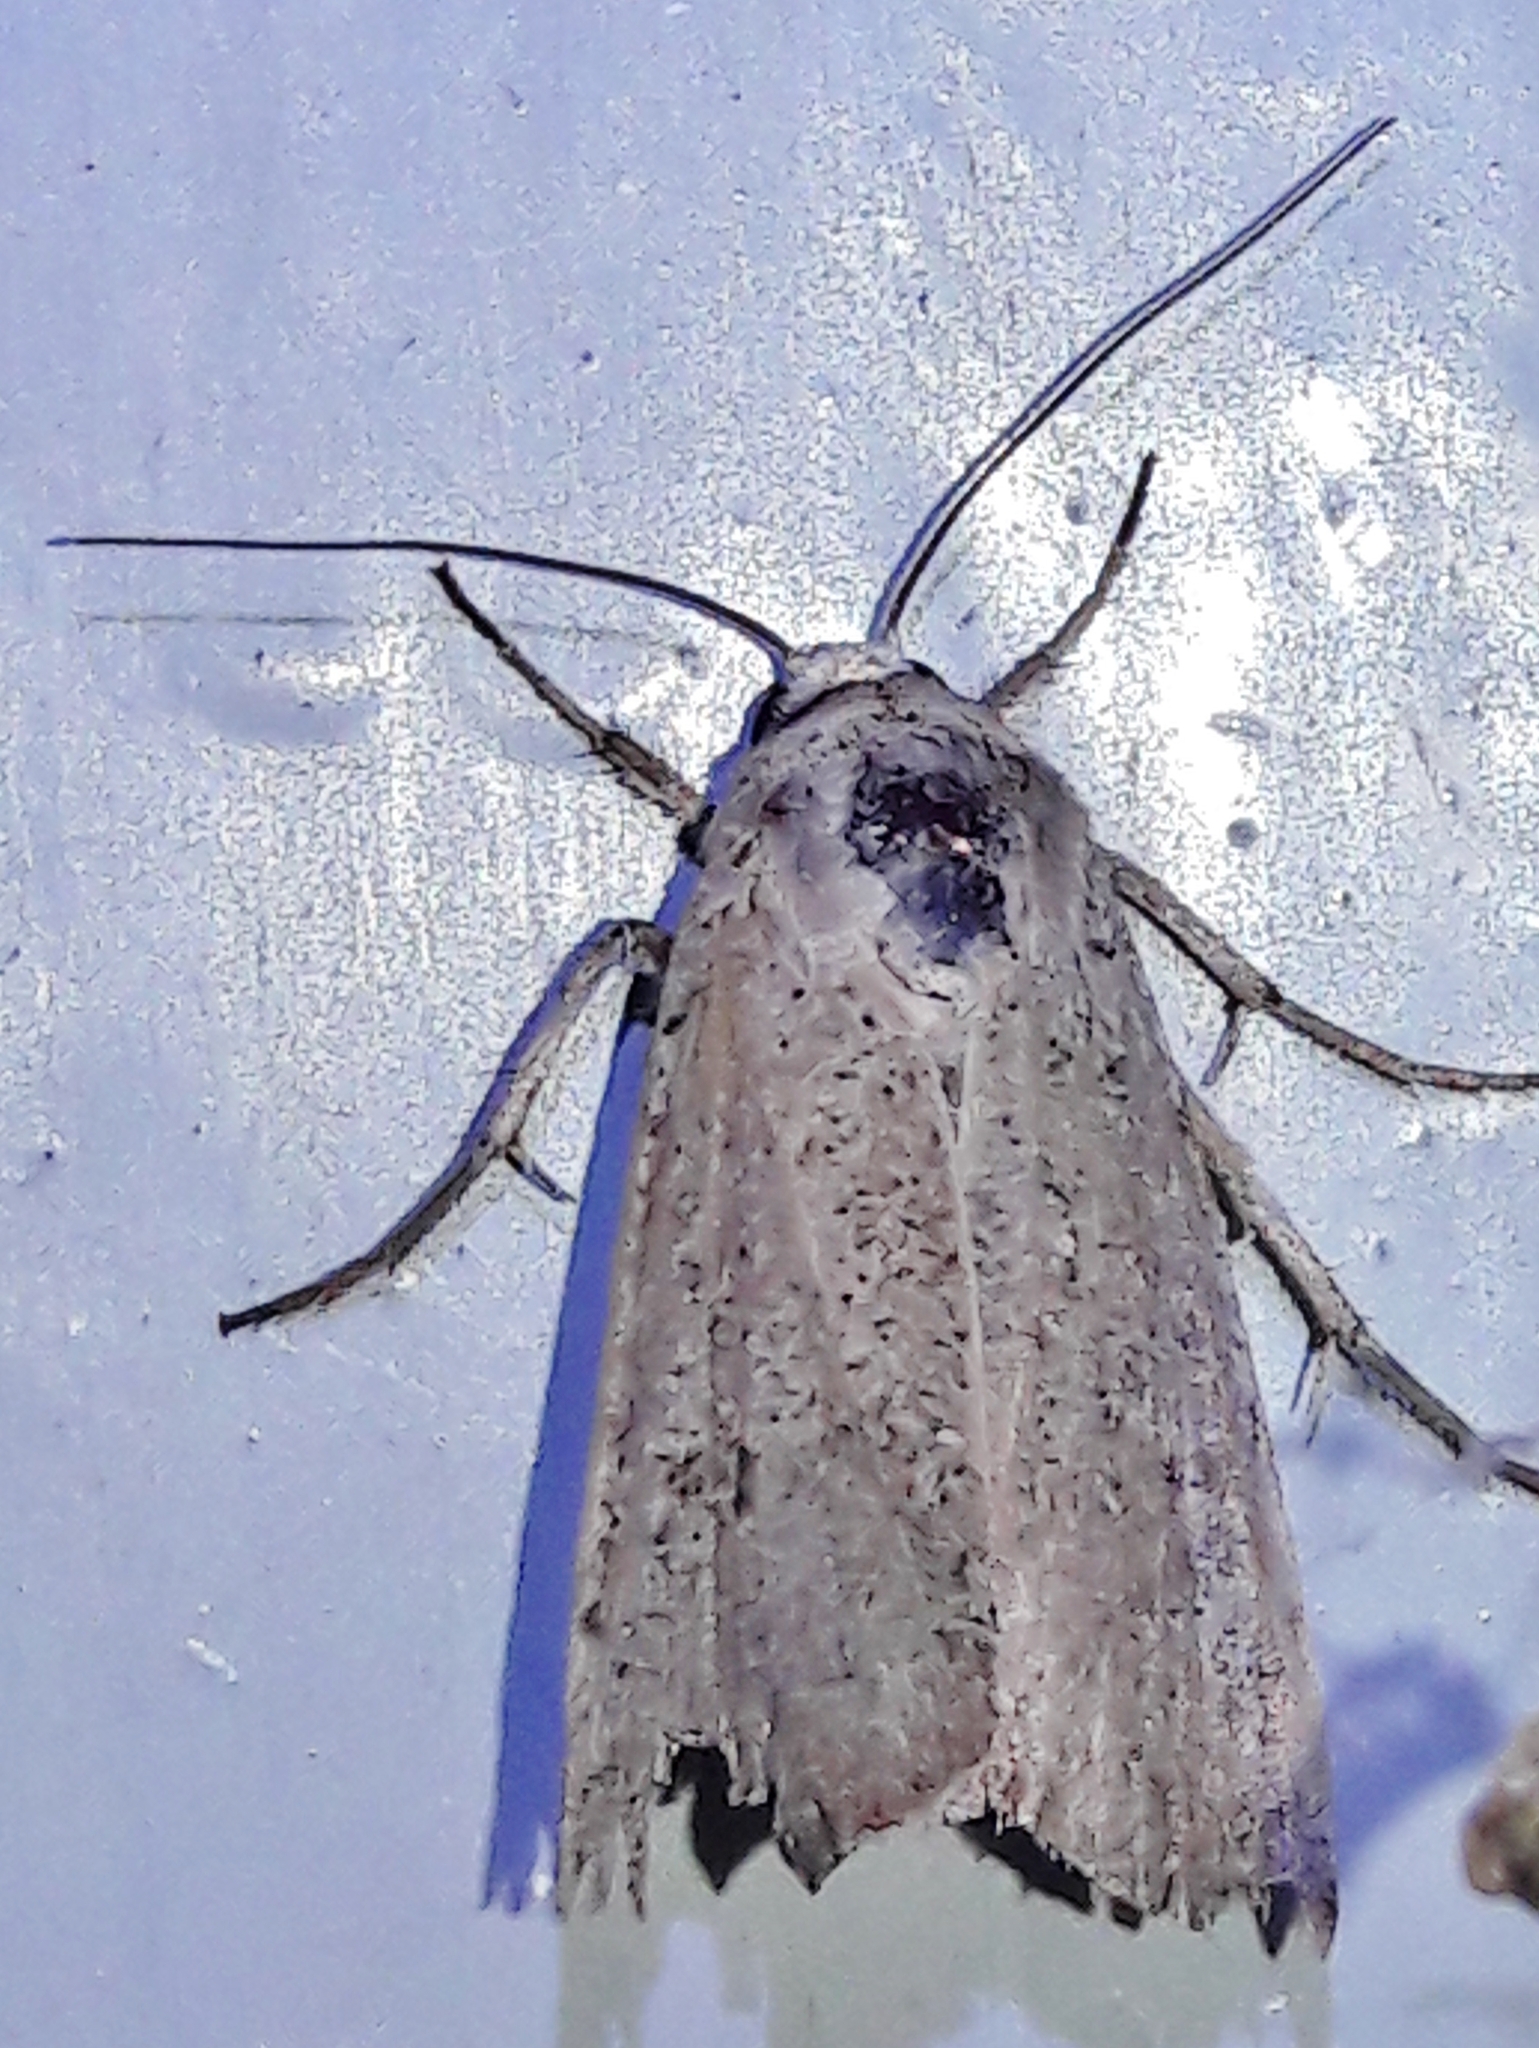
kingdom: Animalia
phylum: Arthropoda
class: Insecta
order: Lepidoptera
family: Noctuidae
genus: Anicla
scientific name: Anicla infecta
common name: Green cutworm
